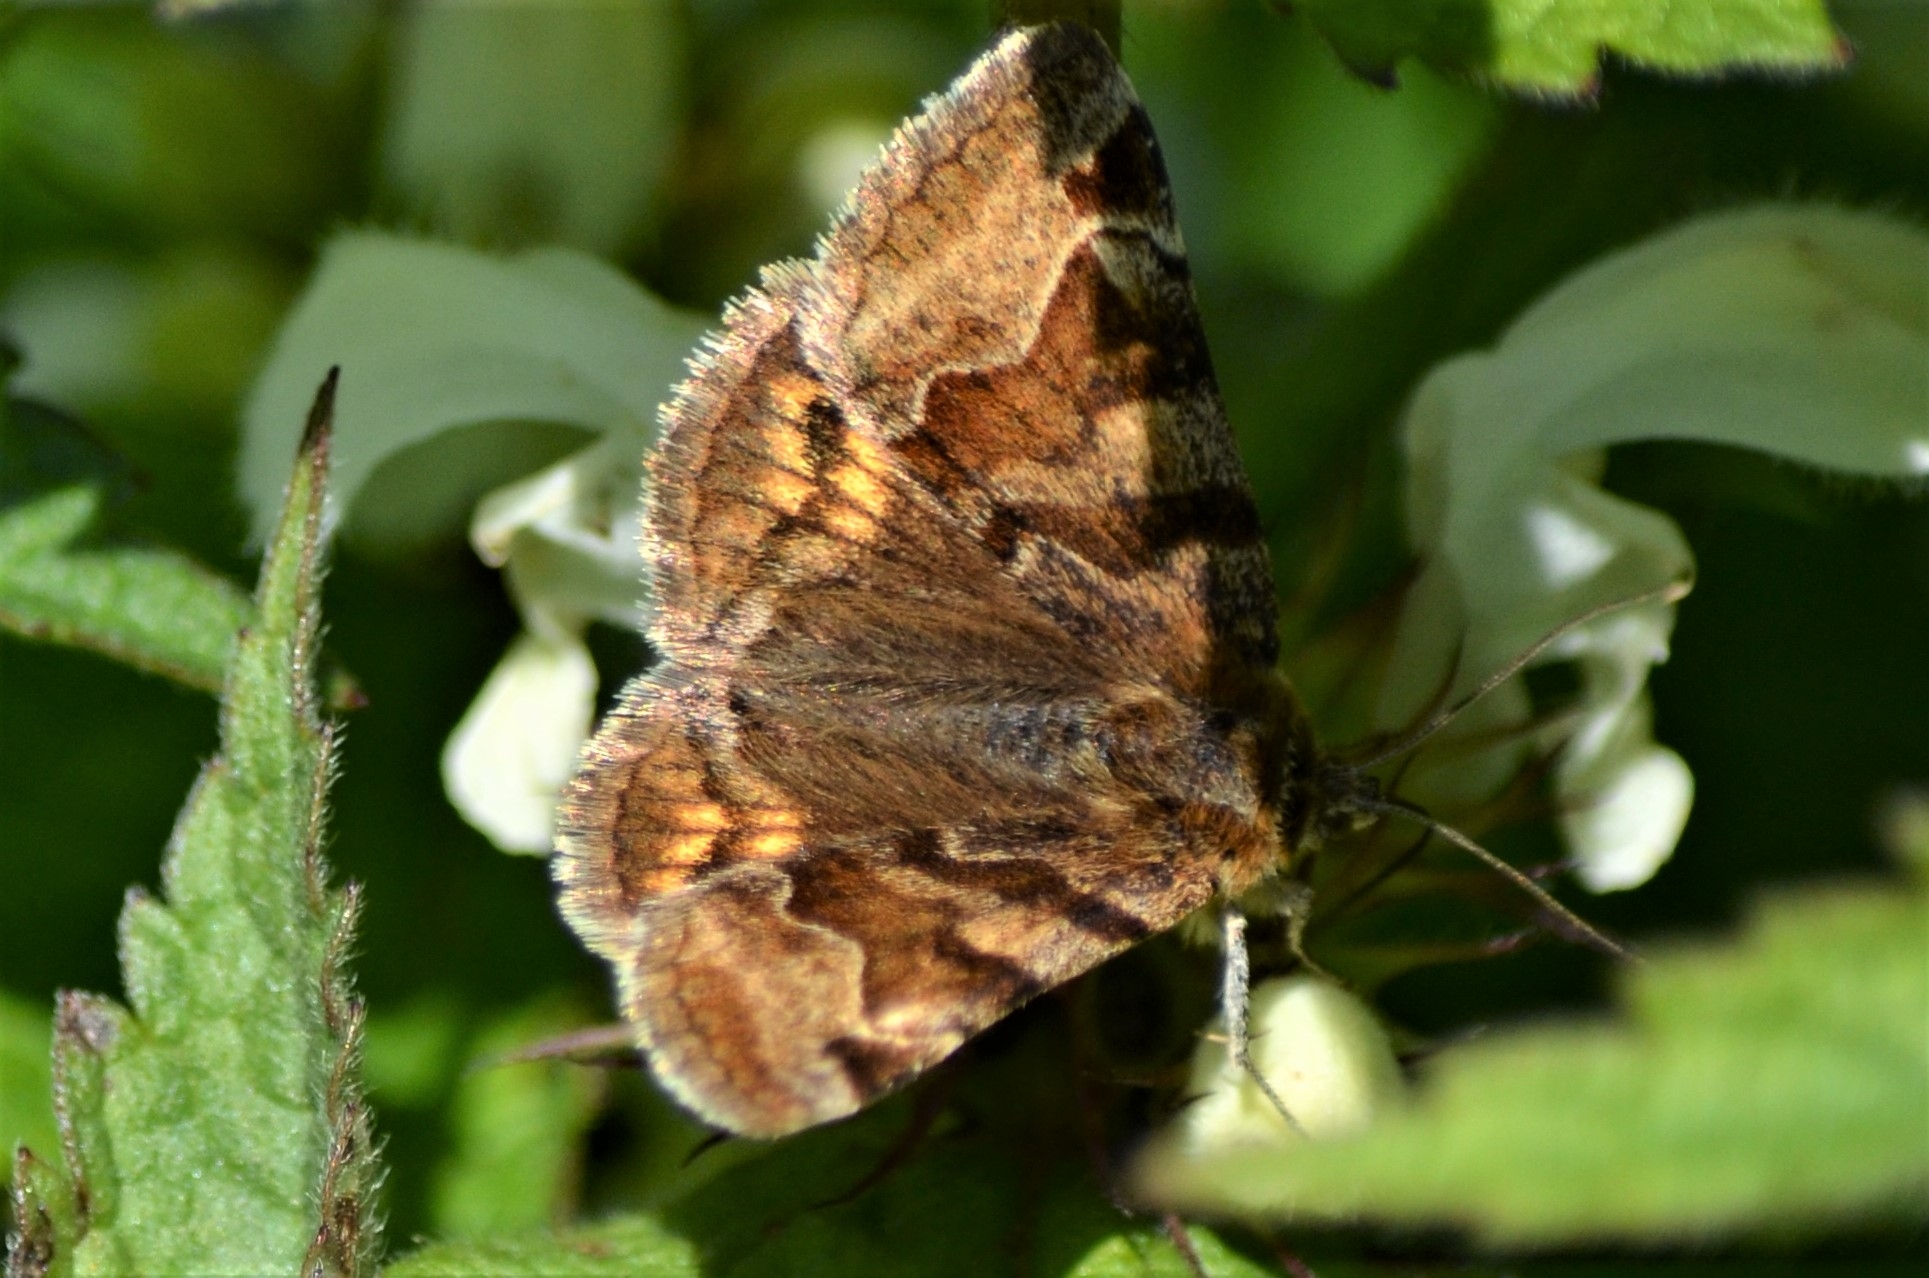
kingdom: Animalia
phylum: Arthropoda
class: Insecta
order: Lepidoptera
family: Erebidae
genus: Euclidia
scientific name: Euclidia glyphica
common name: Burnet companion
